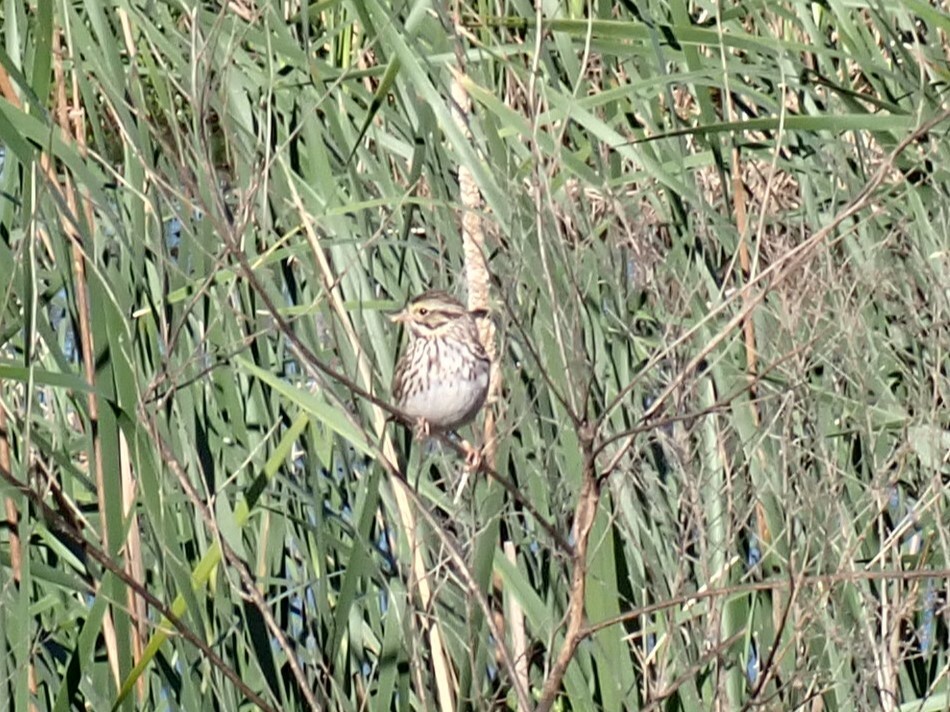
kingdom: Animalia
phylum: Chordata
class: Aves
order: Passeriformes
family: Passerellidae
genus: Passerculus
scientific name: Passerculus sandwichensis
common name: Savannah sparrow
